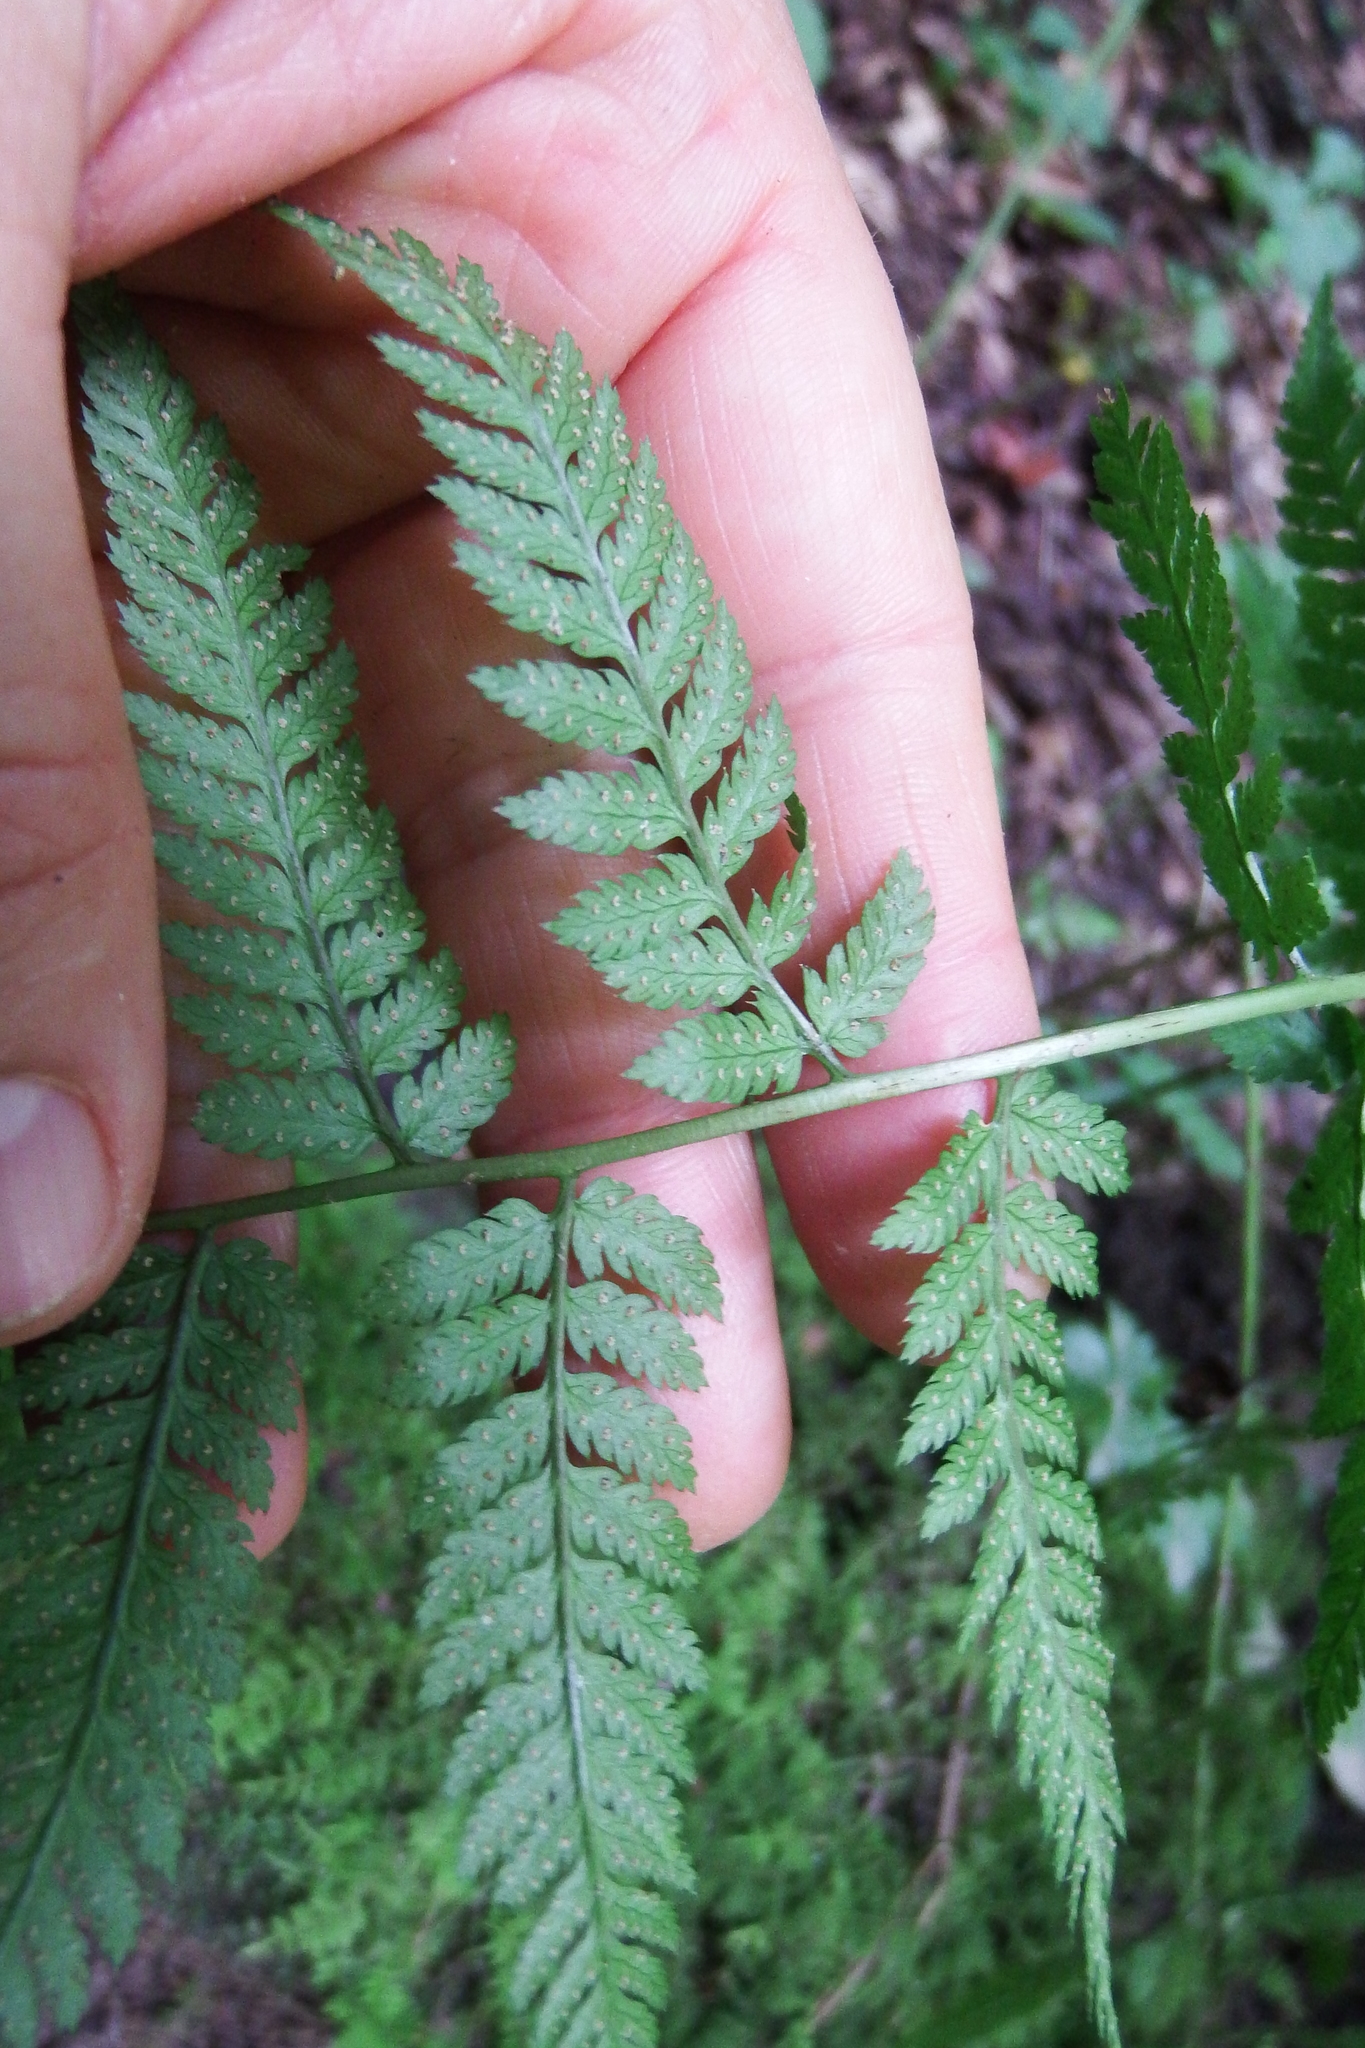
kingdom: Plantae
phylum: Tracheophyta
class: Polypodiopsida
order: Polypodiales
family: Dryopteridaceae
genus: Dryopteris
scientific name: Dryopteris carthusiana
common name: Narrow buckler-fern
